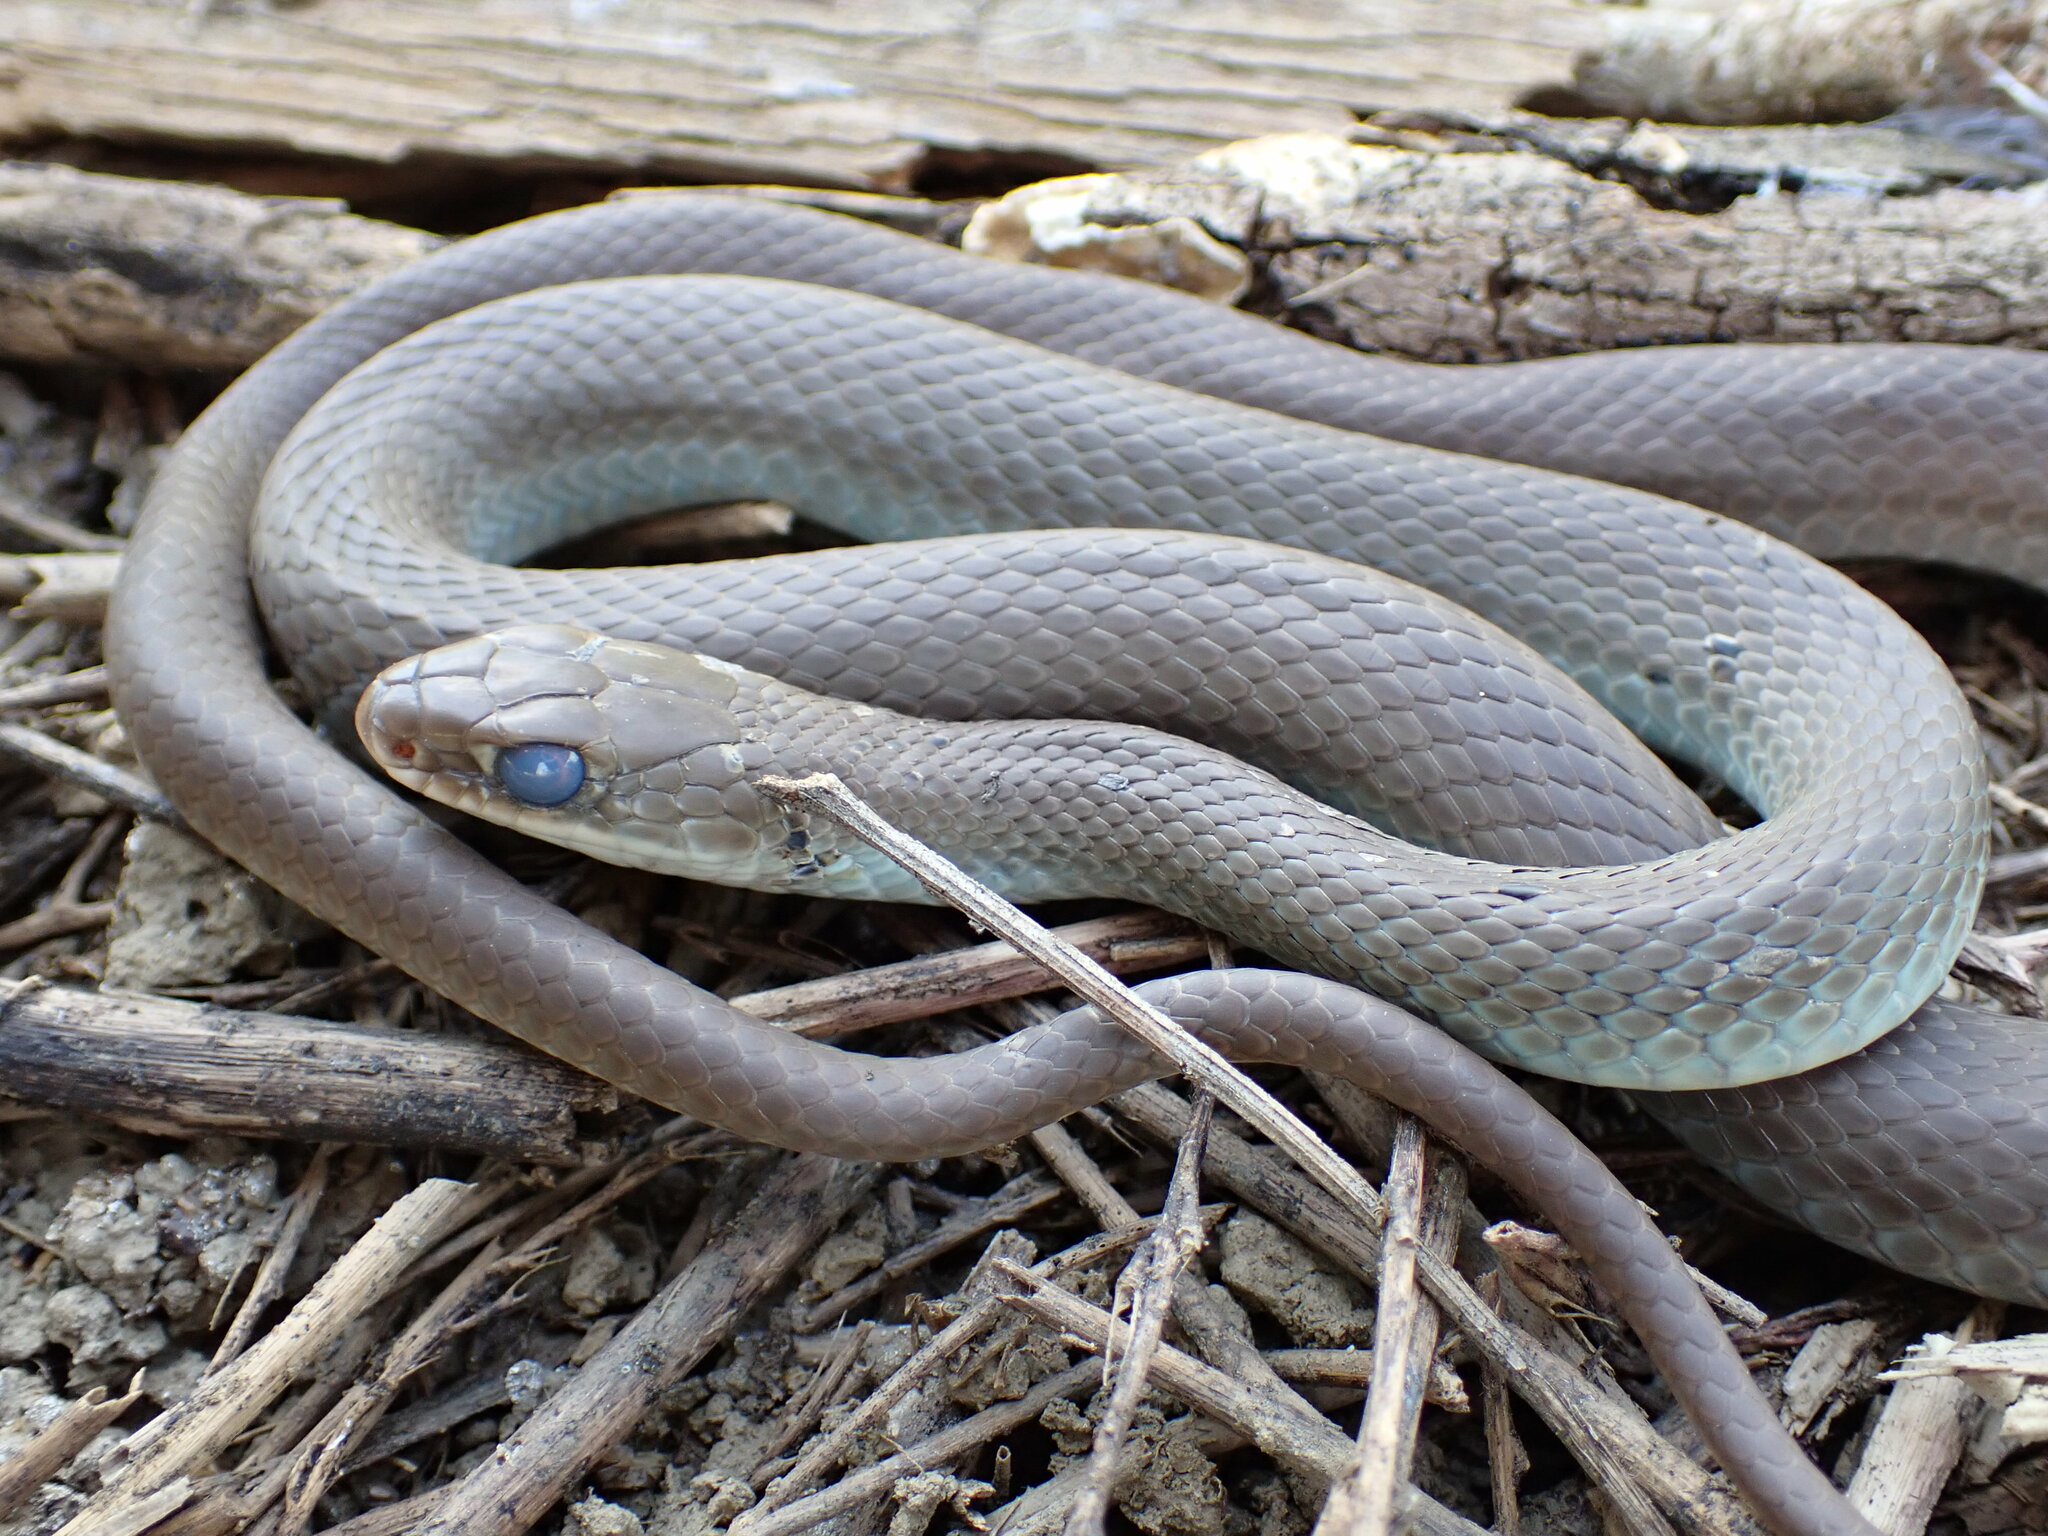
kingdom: Animalia
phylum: Chordata
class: Squamata
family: Colubridae
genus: Coluber
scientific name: Coluber constrictor
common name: Eastern racer
